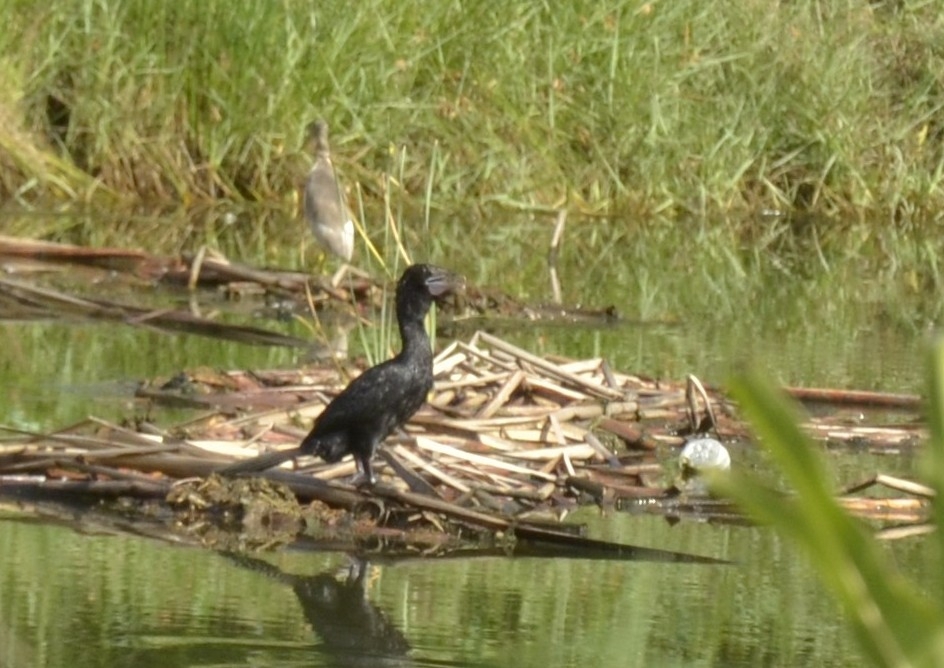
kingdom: Animalia
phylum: Chordata
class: Aves
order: Suliformes
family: Phalacrocoracidae
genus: Microcarbo
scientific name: Microcarbo niger
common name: Little cormorant
